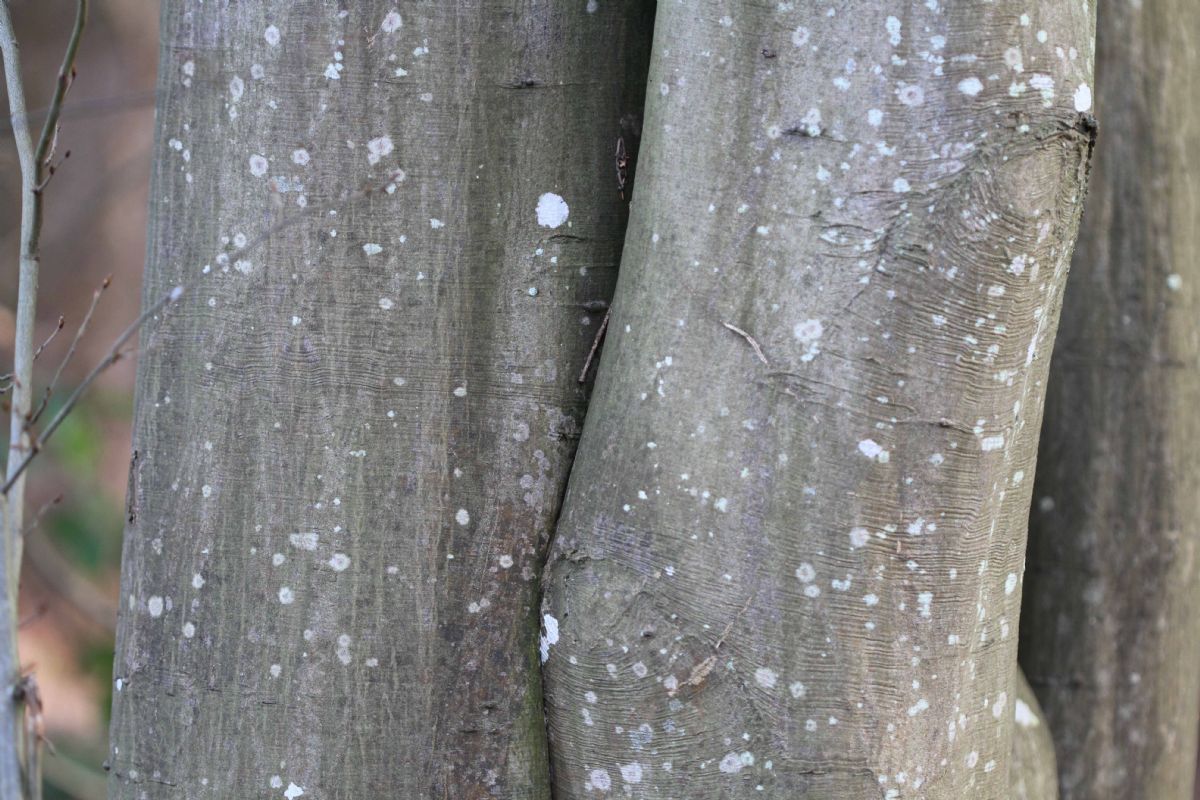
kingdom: Plantae
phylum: Tracheophyta
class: Magnoliopsida
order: Fagales
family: Betulaceae
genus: Carpinus
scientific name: Carpinus betulus
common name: Hornbeam
